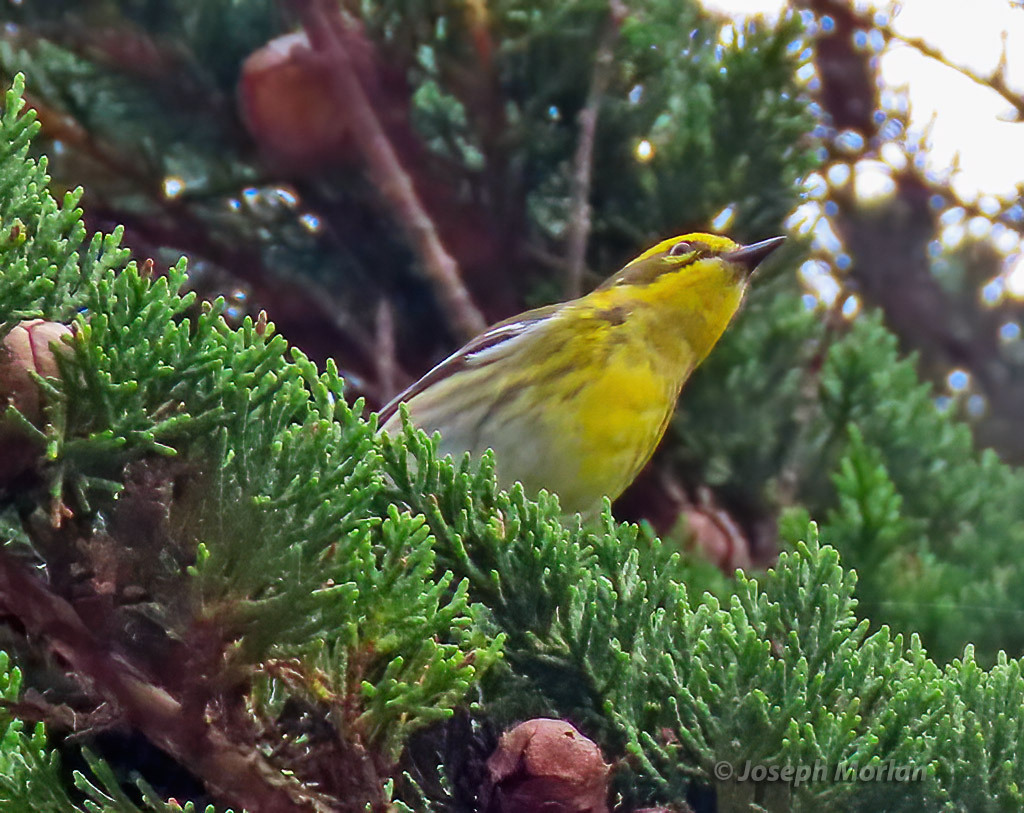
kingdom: Animalia
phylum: Chordata
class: Aves
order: Passeriformes
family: Parulidae
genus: Setophaga
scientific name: Setophaga townsendi
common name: Townsend's warbler
